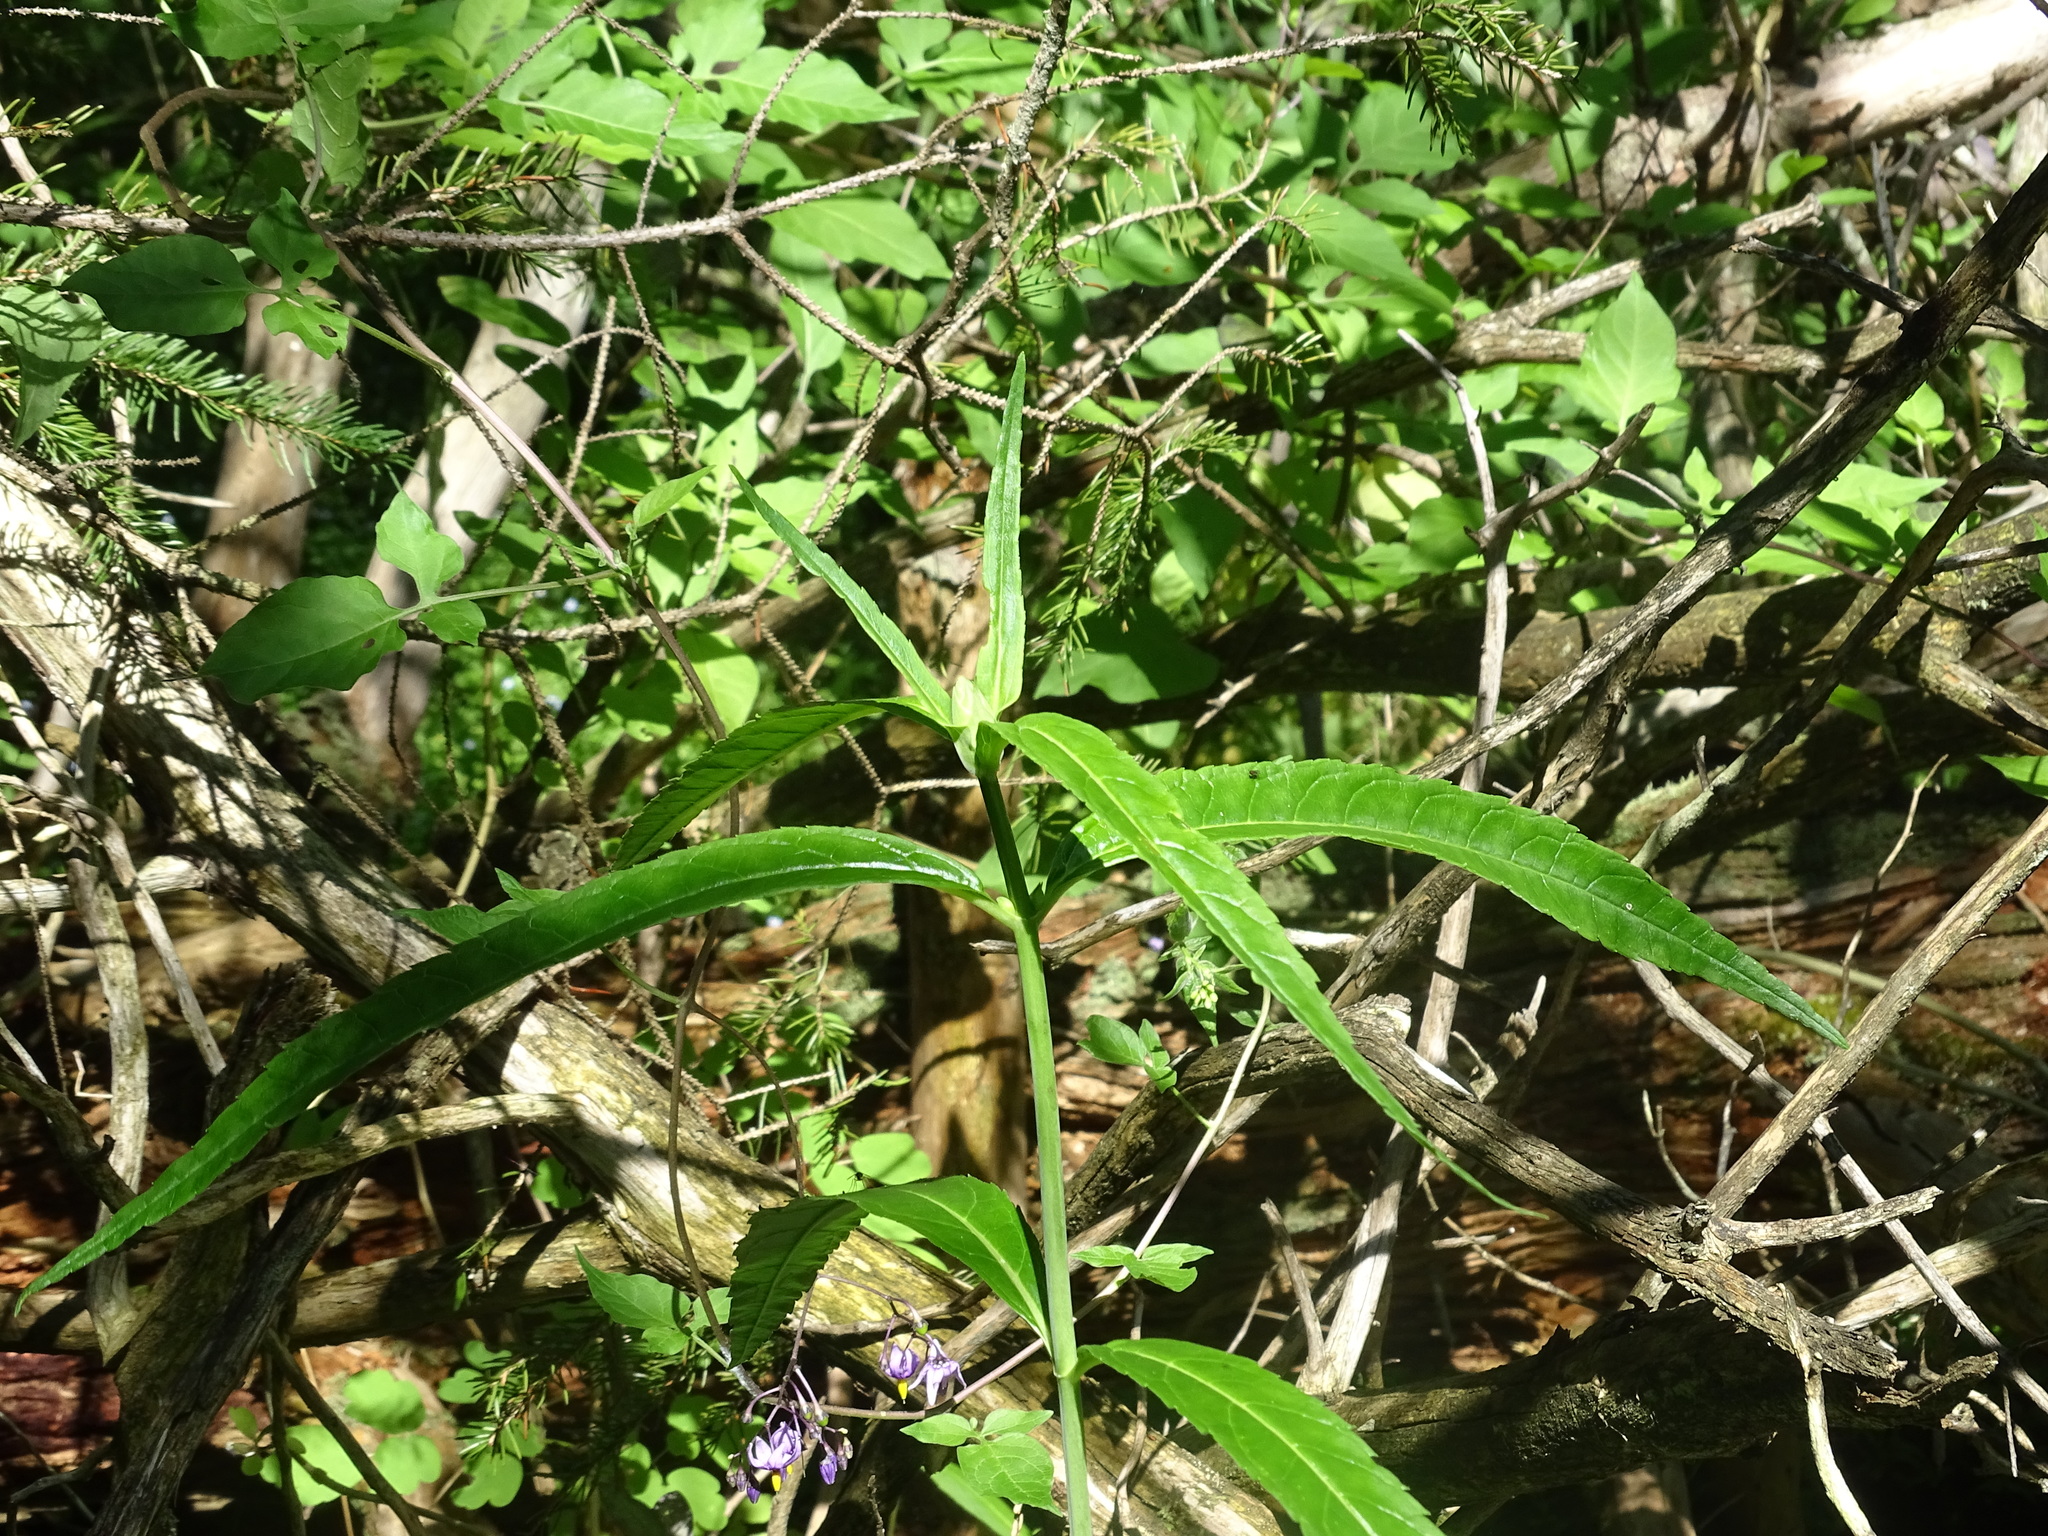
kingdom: Plantae
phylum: Tracheophyta
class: Magnoliopsida
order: Lamiales
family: Plantaginaceae
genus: Chelone
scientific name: Chelone glabra
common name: Snakehead
